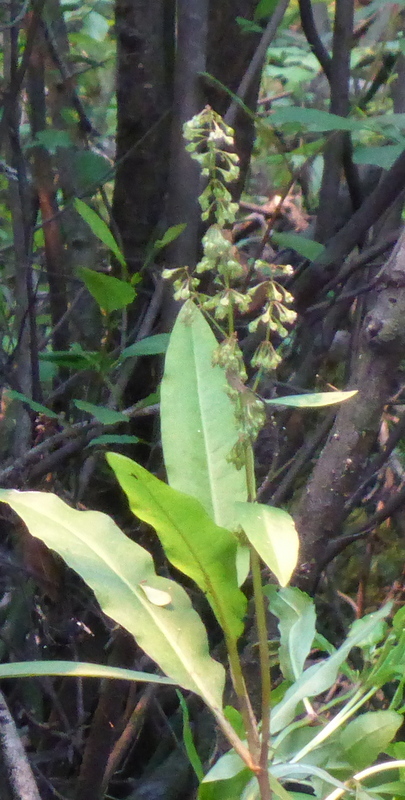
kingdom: Plantae
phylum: Tracheophyta
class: Magnoliopsida
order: Caryophyllales
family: Polygonaceae
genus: Rumex
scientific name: Rumex verticillatus
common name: Swamp dock
